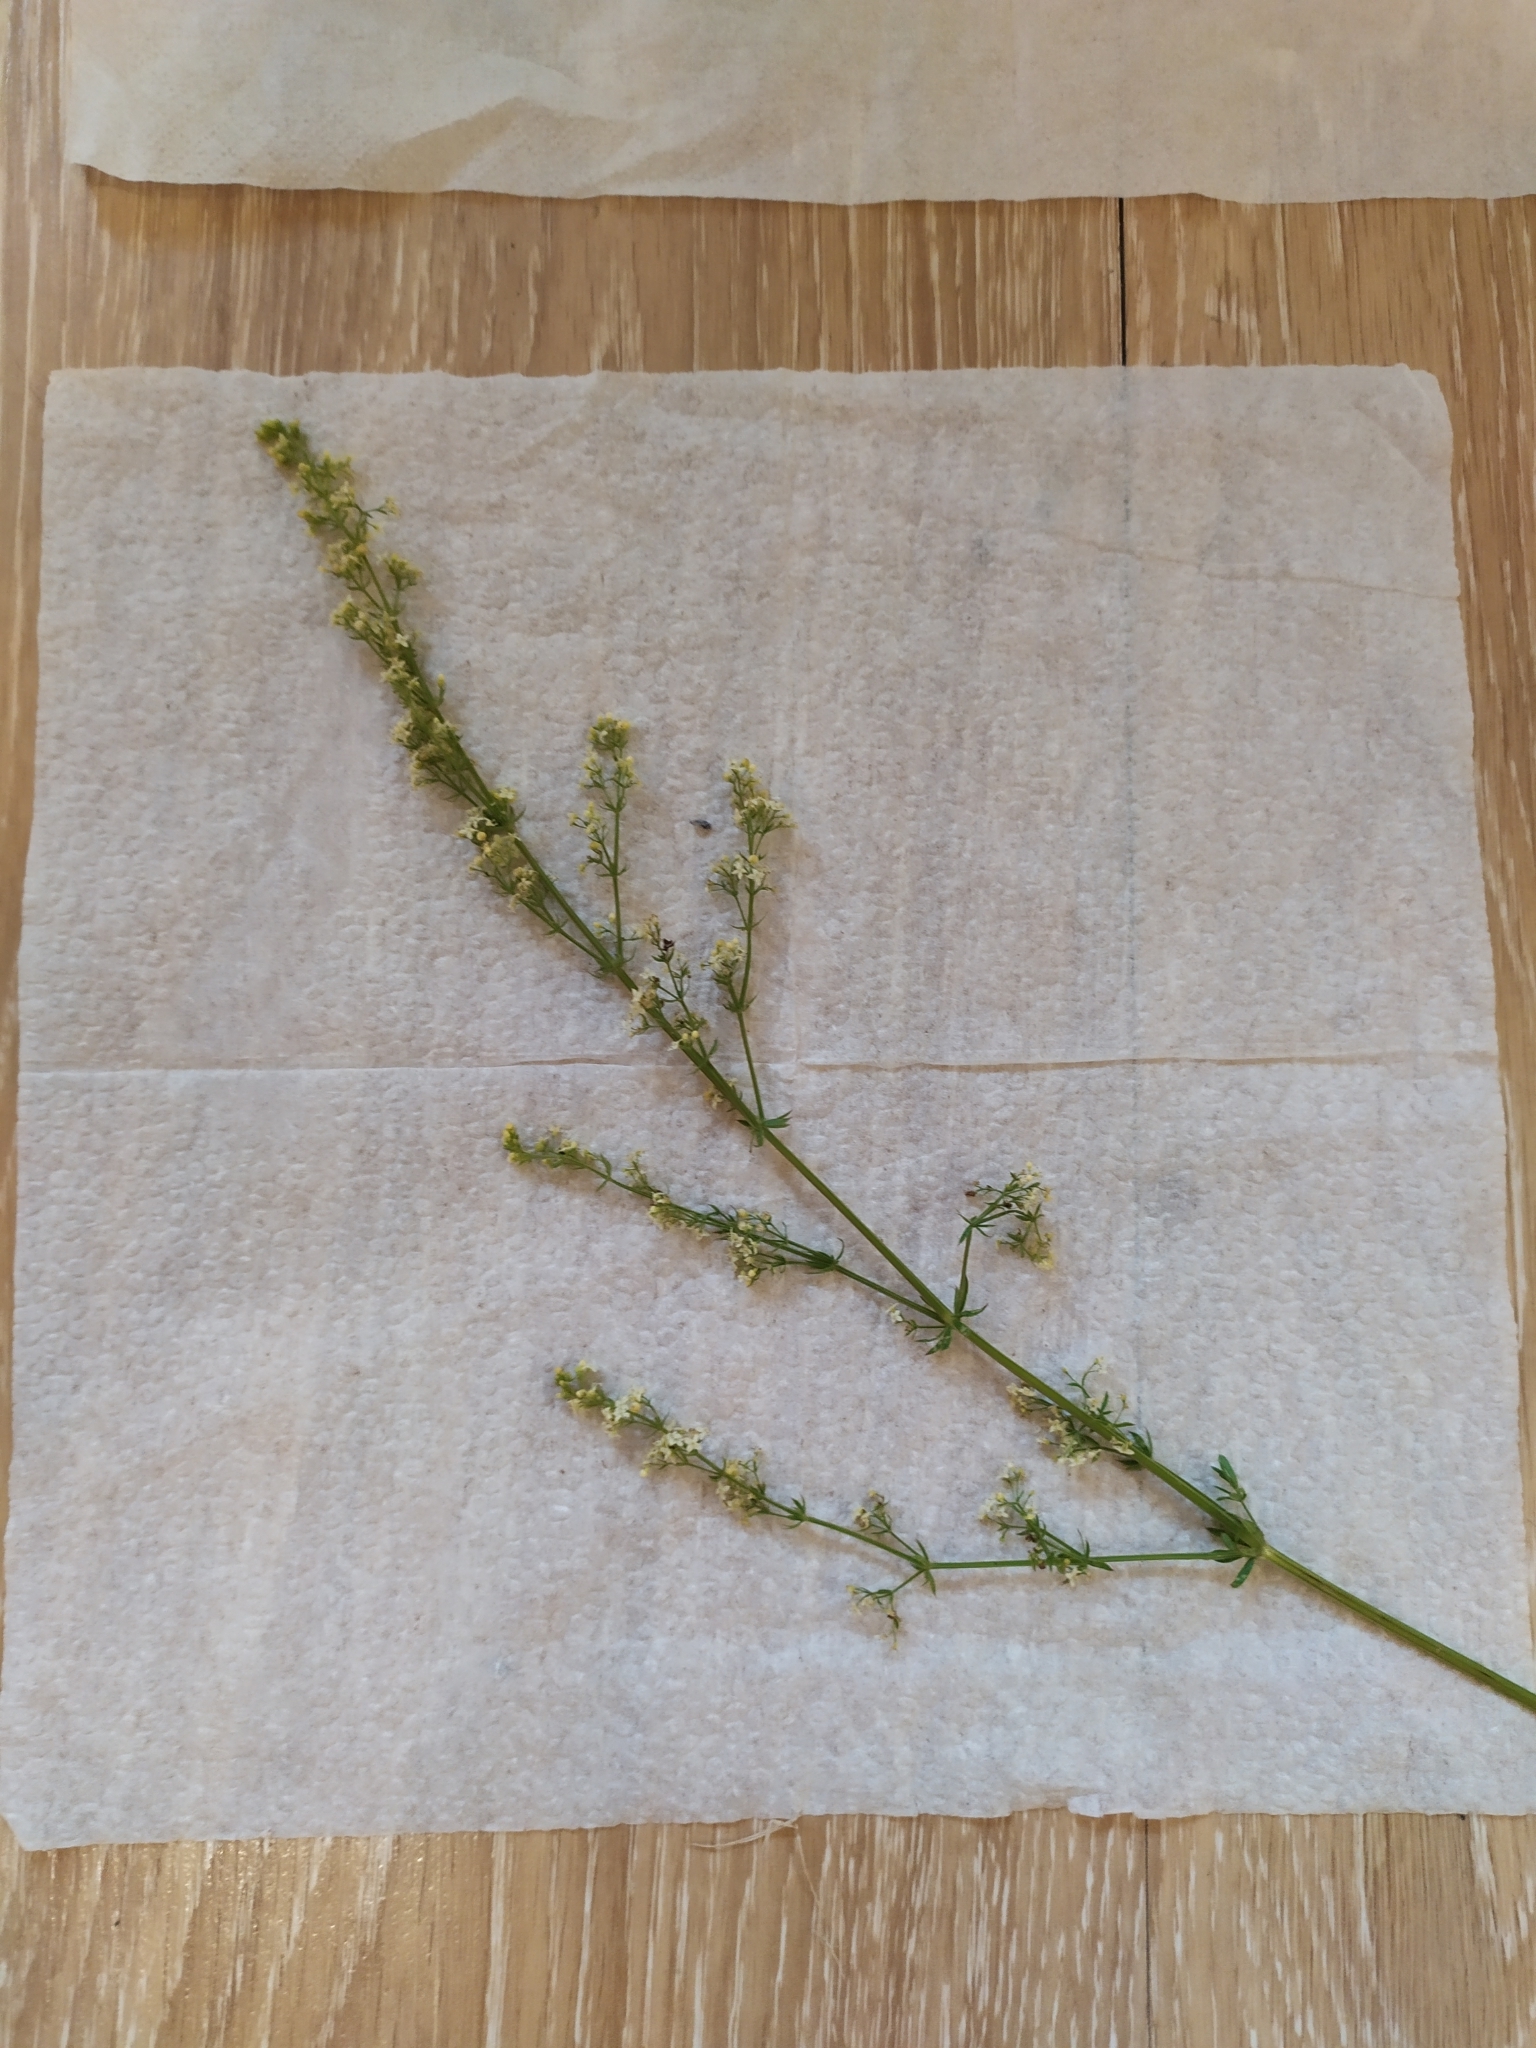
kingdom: Plantae
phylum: Tracheophyta
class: Magnoliopsida
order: Gentianales
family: Rubiaceae
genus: Galium
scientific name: Galium mollugo
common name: Hedge bedstraw
